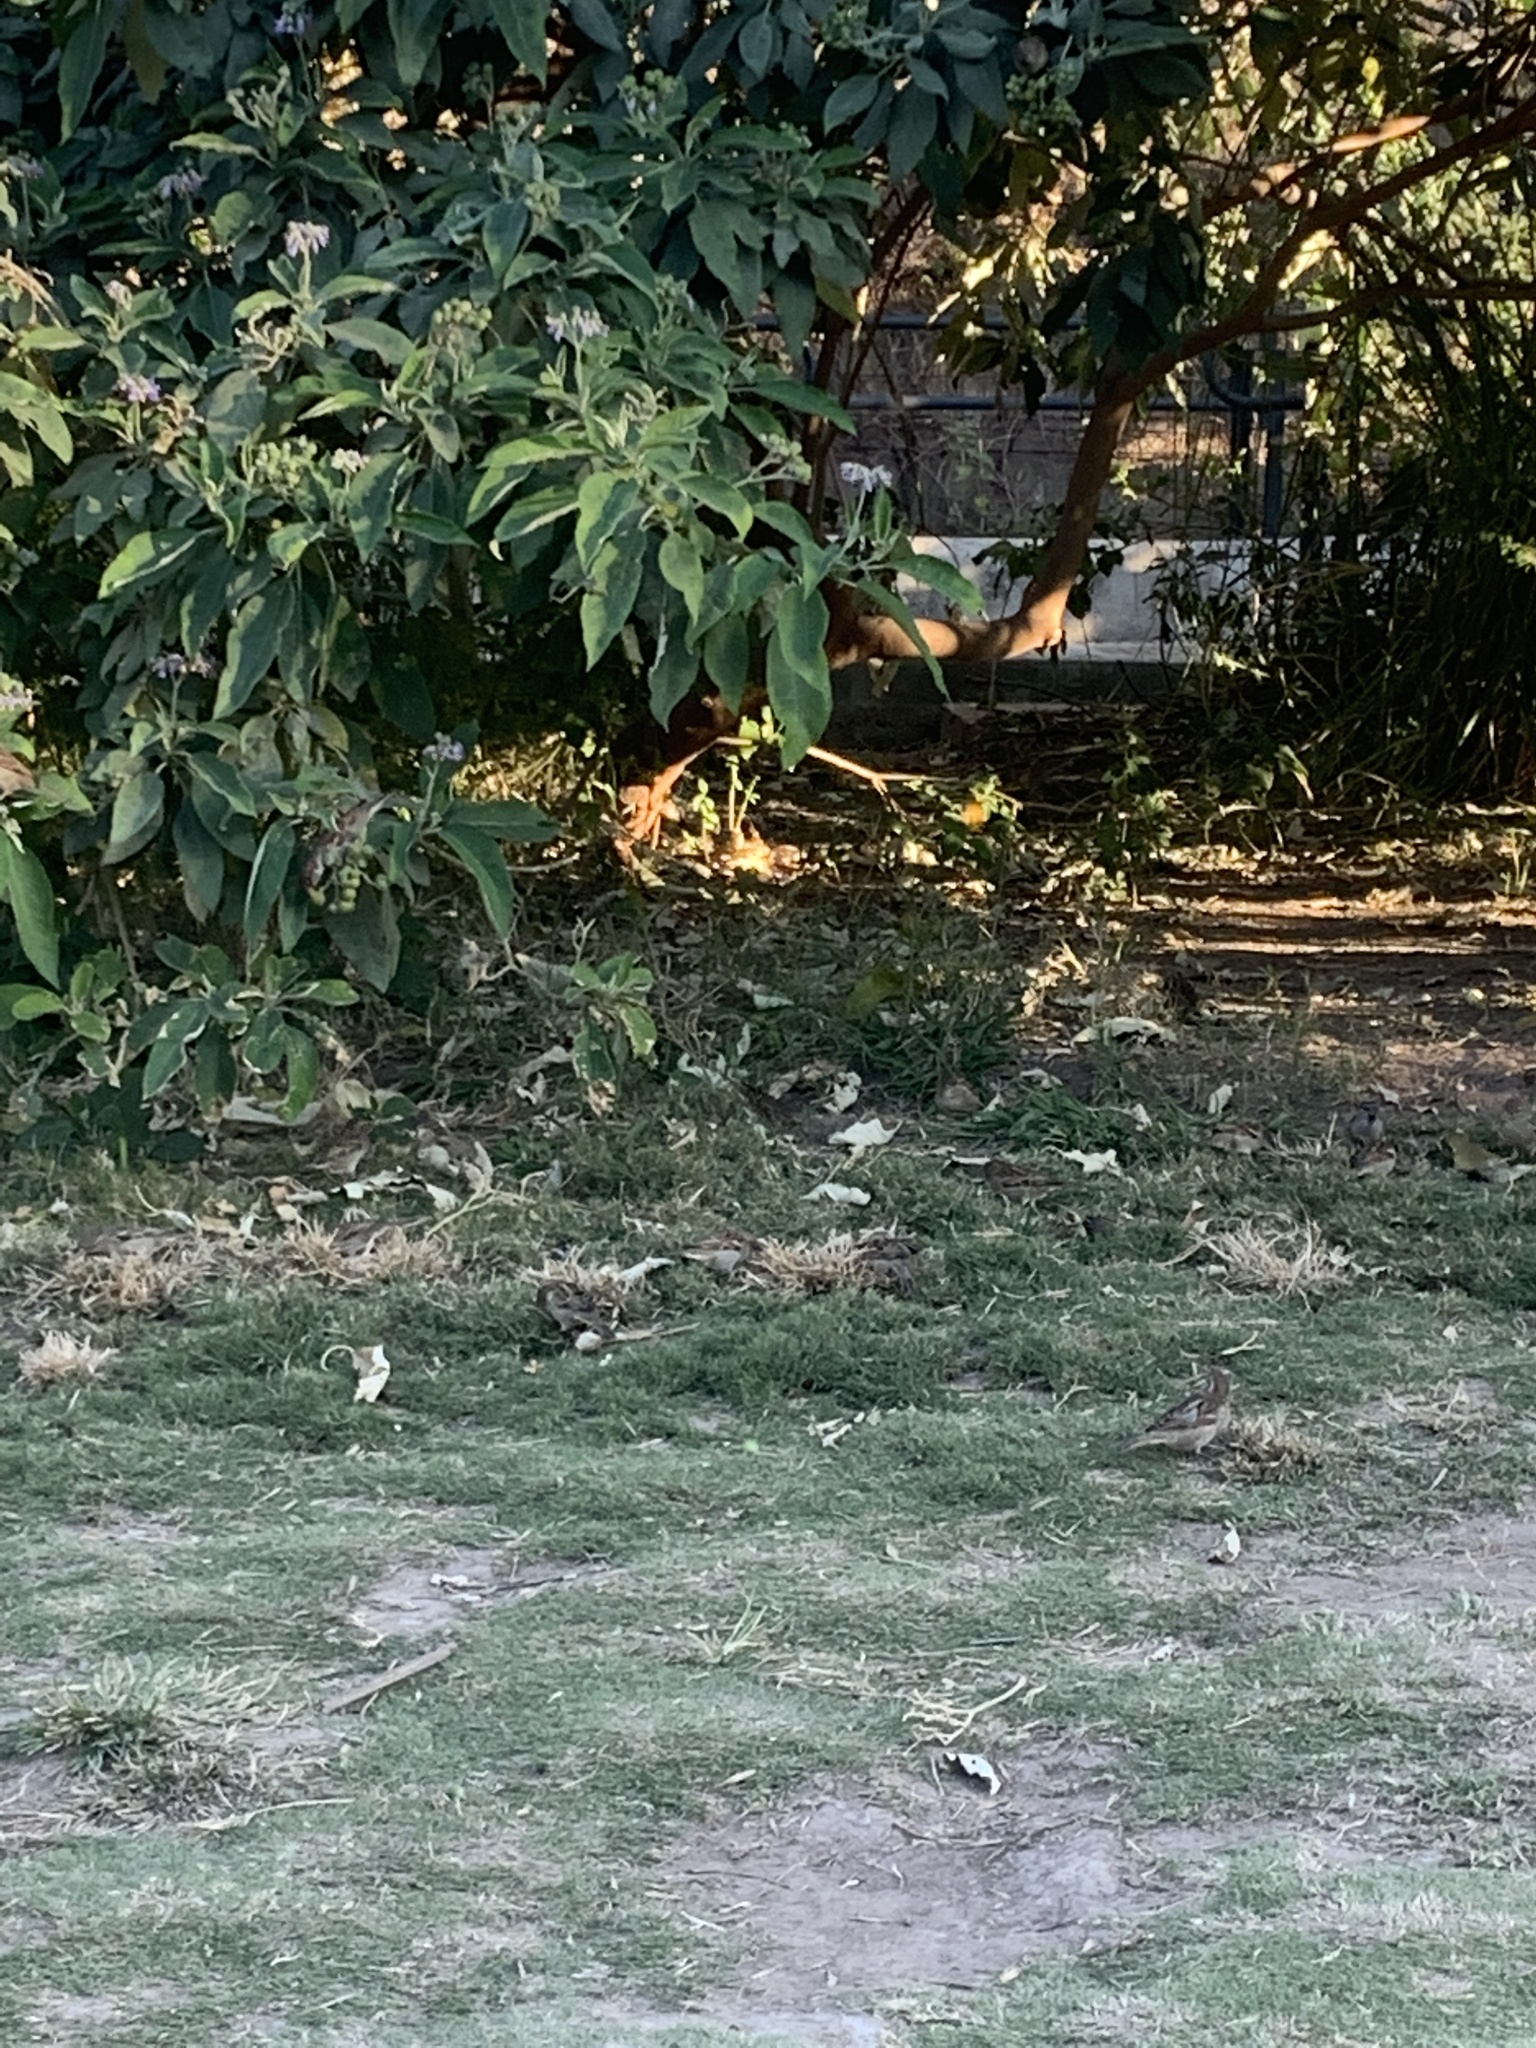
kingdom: Animalia
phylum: Chordata
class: Aves
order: Passeriformes
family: Passeridae
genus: Passer
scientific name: Passer domesticus
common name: House sparrow
